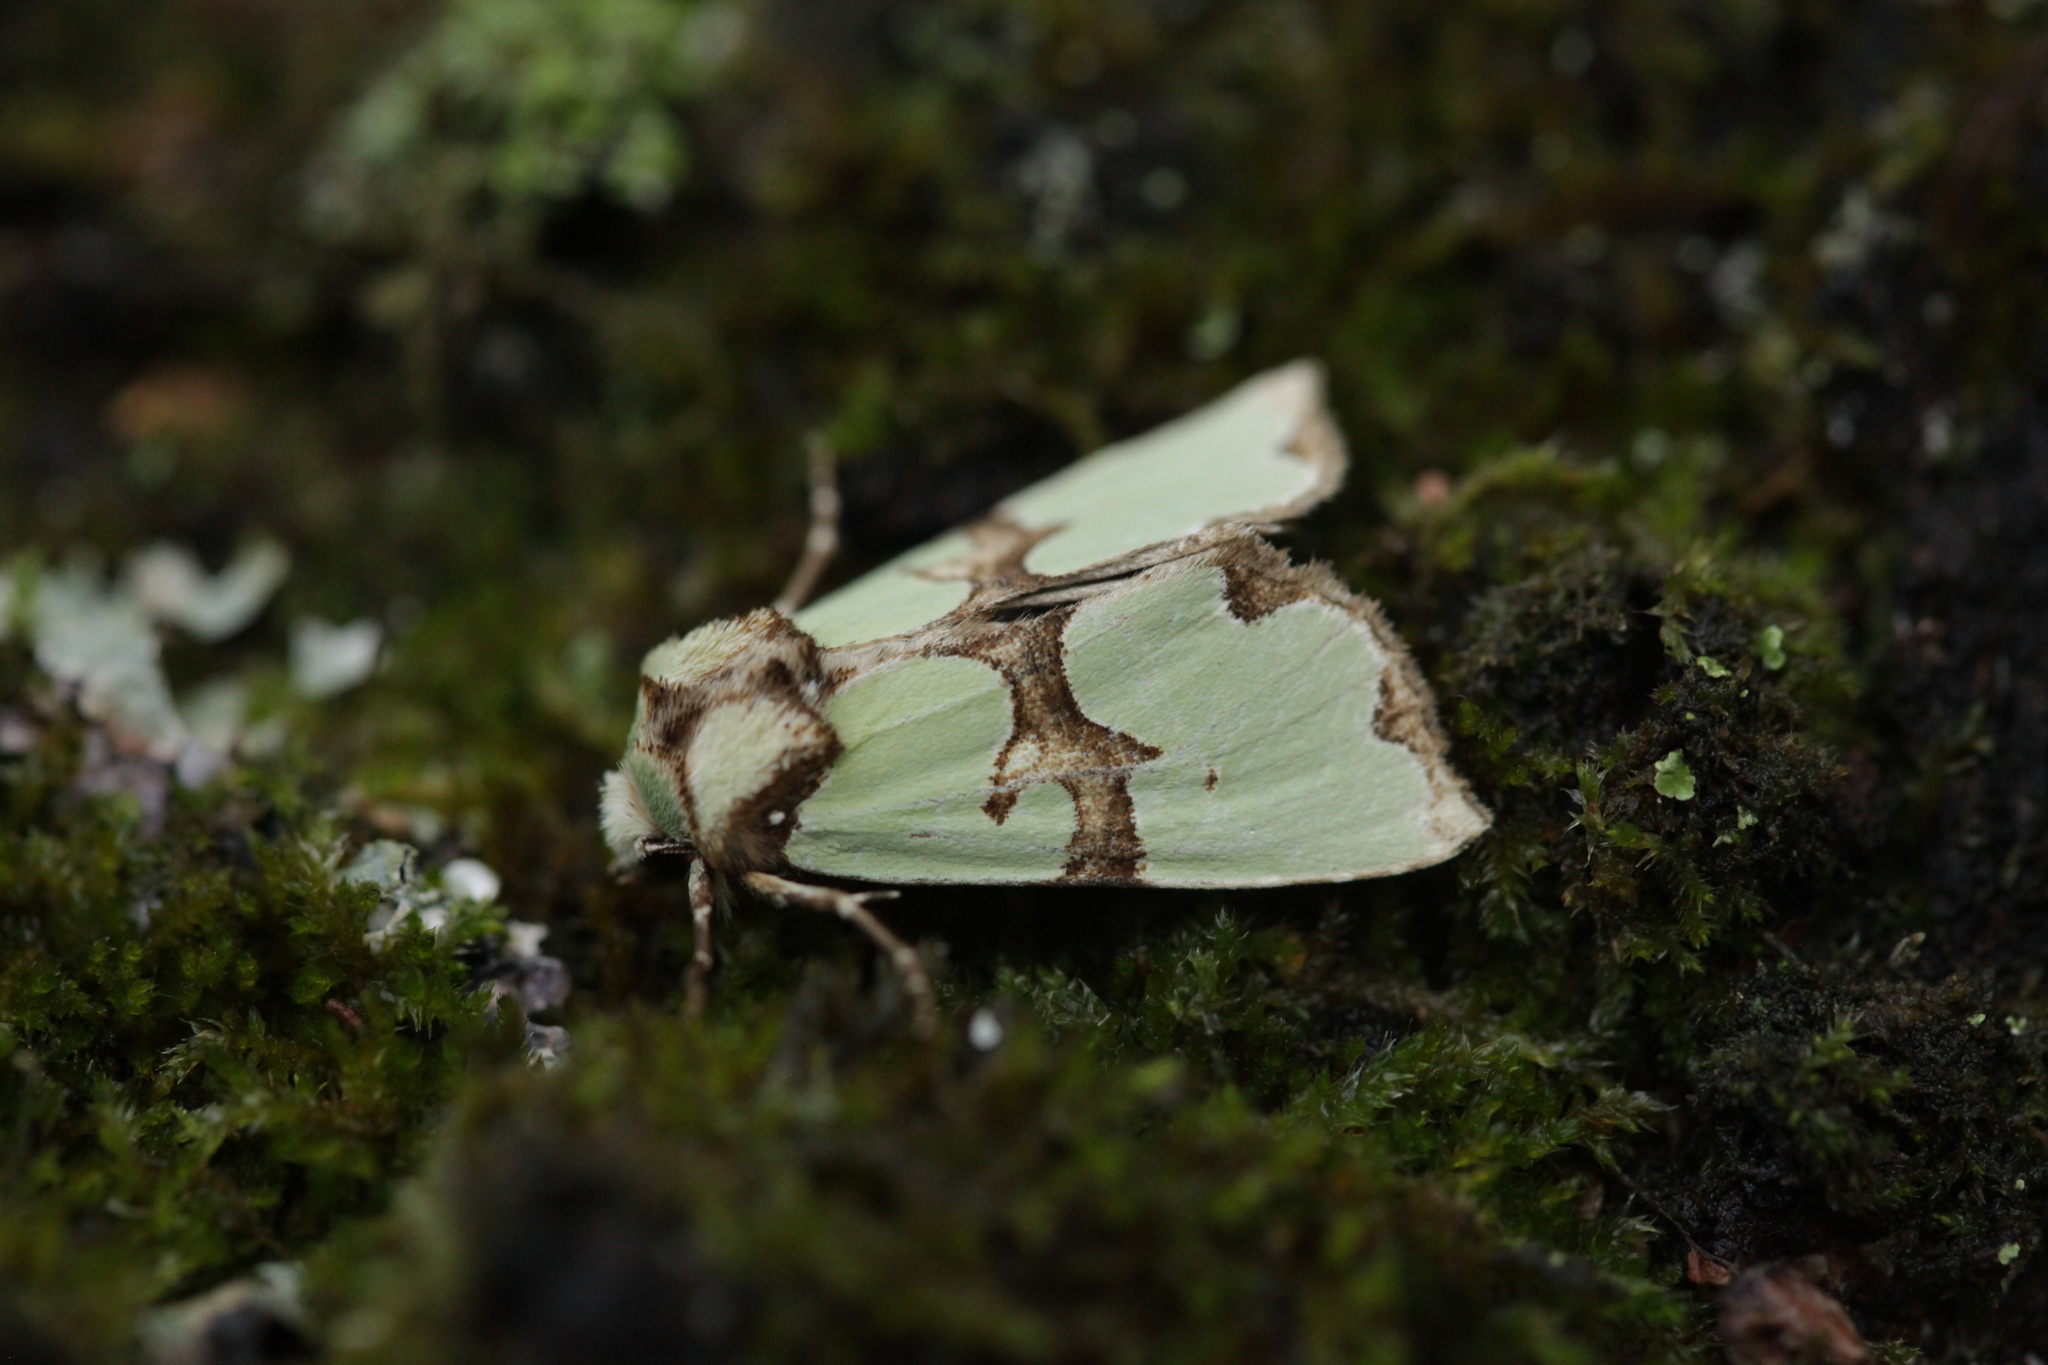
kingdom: Animalia
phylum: Arthropoda
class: Insecta
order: Lepidoptera
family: Noctuidae
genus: Staurophora
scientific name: Staurophora celsia
